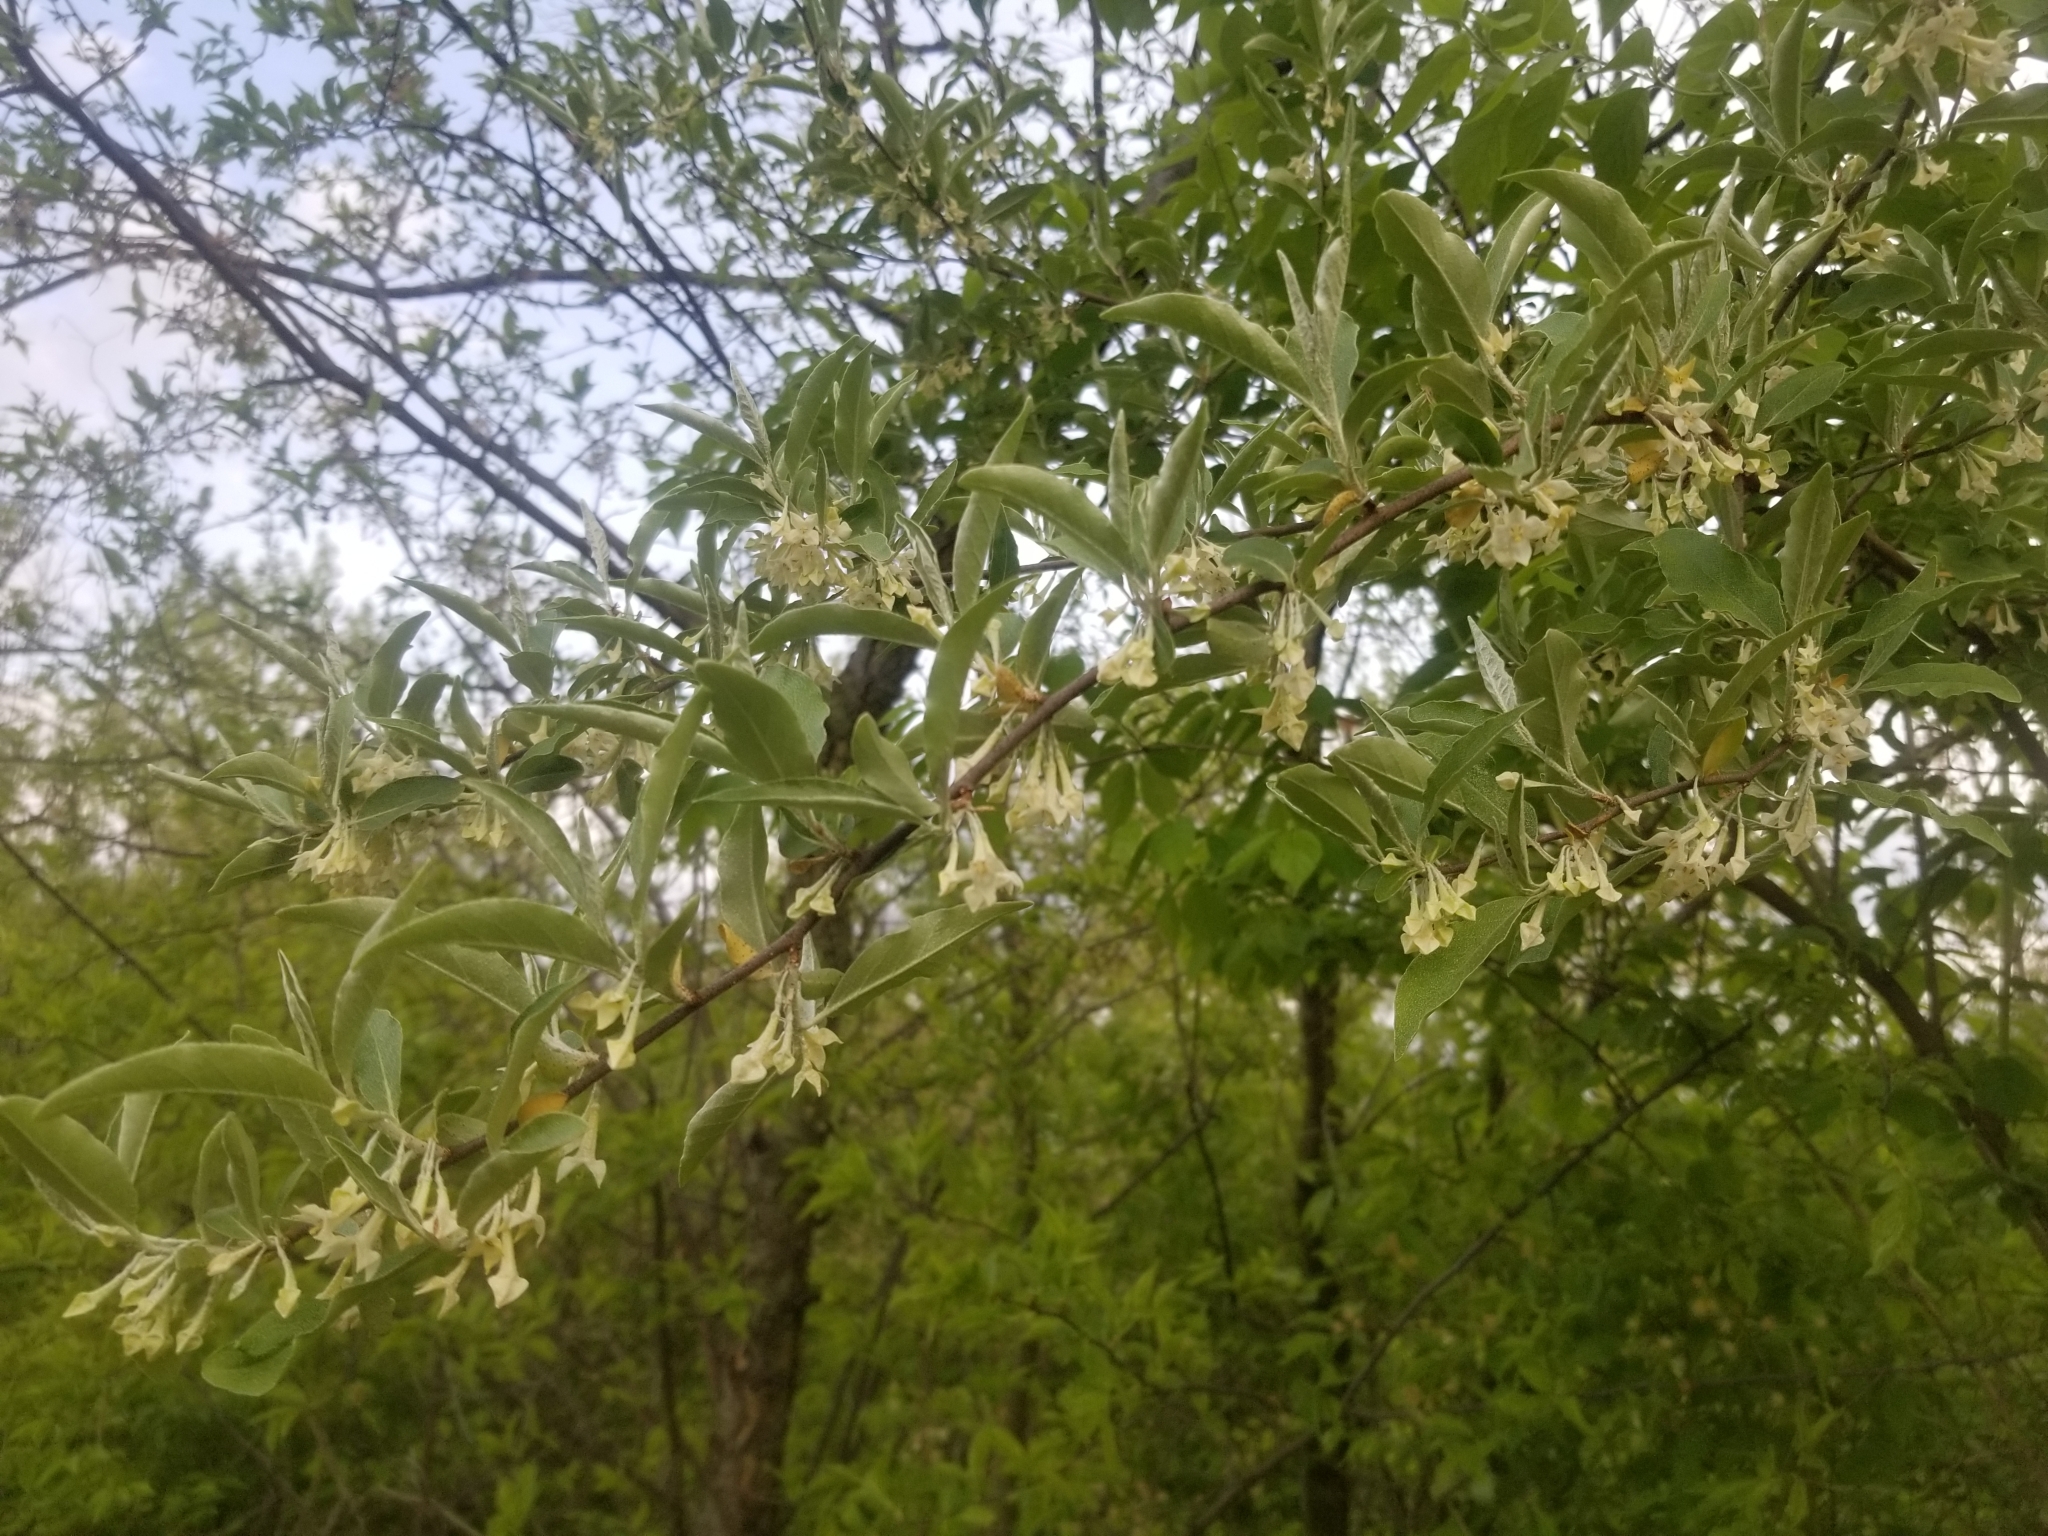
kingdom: Plantae
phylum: Tracheophyta
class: Magnoliopsida
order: Rosales
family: Elaeagnaceae
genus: Elaeagnus
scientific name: Elaeagnus umbellata
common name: Autumn olive
